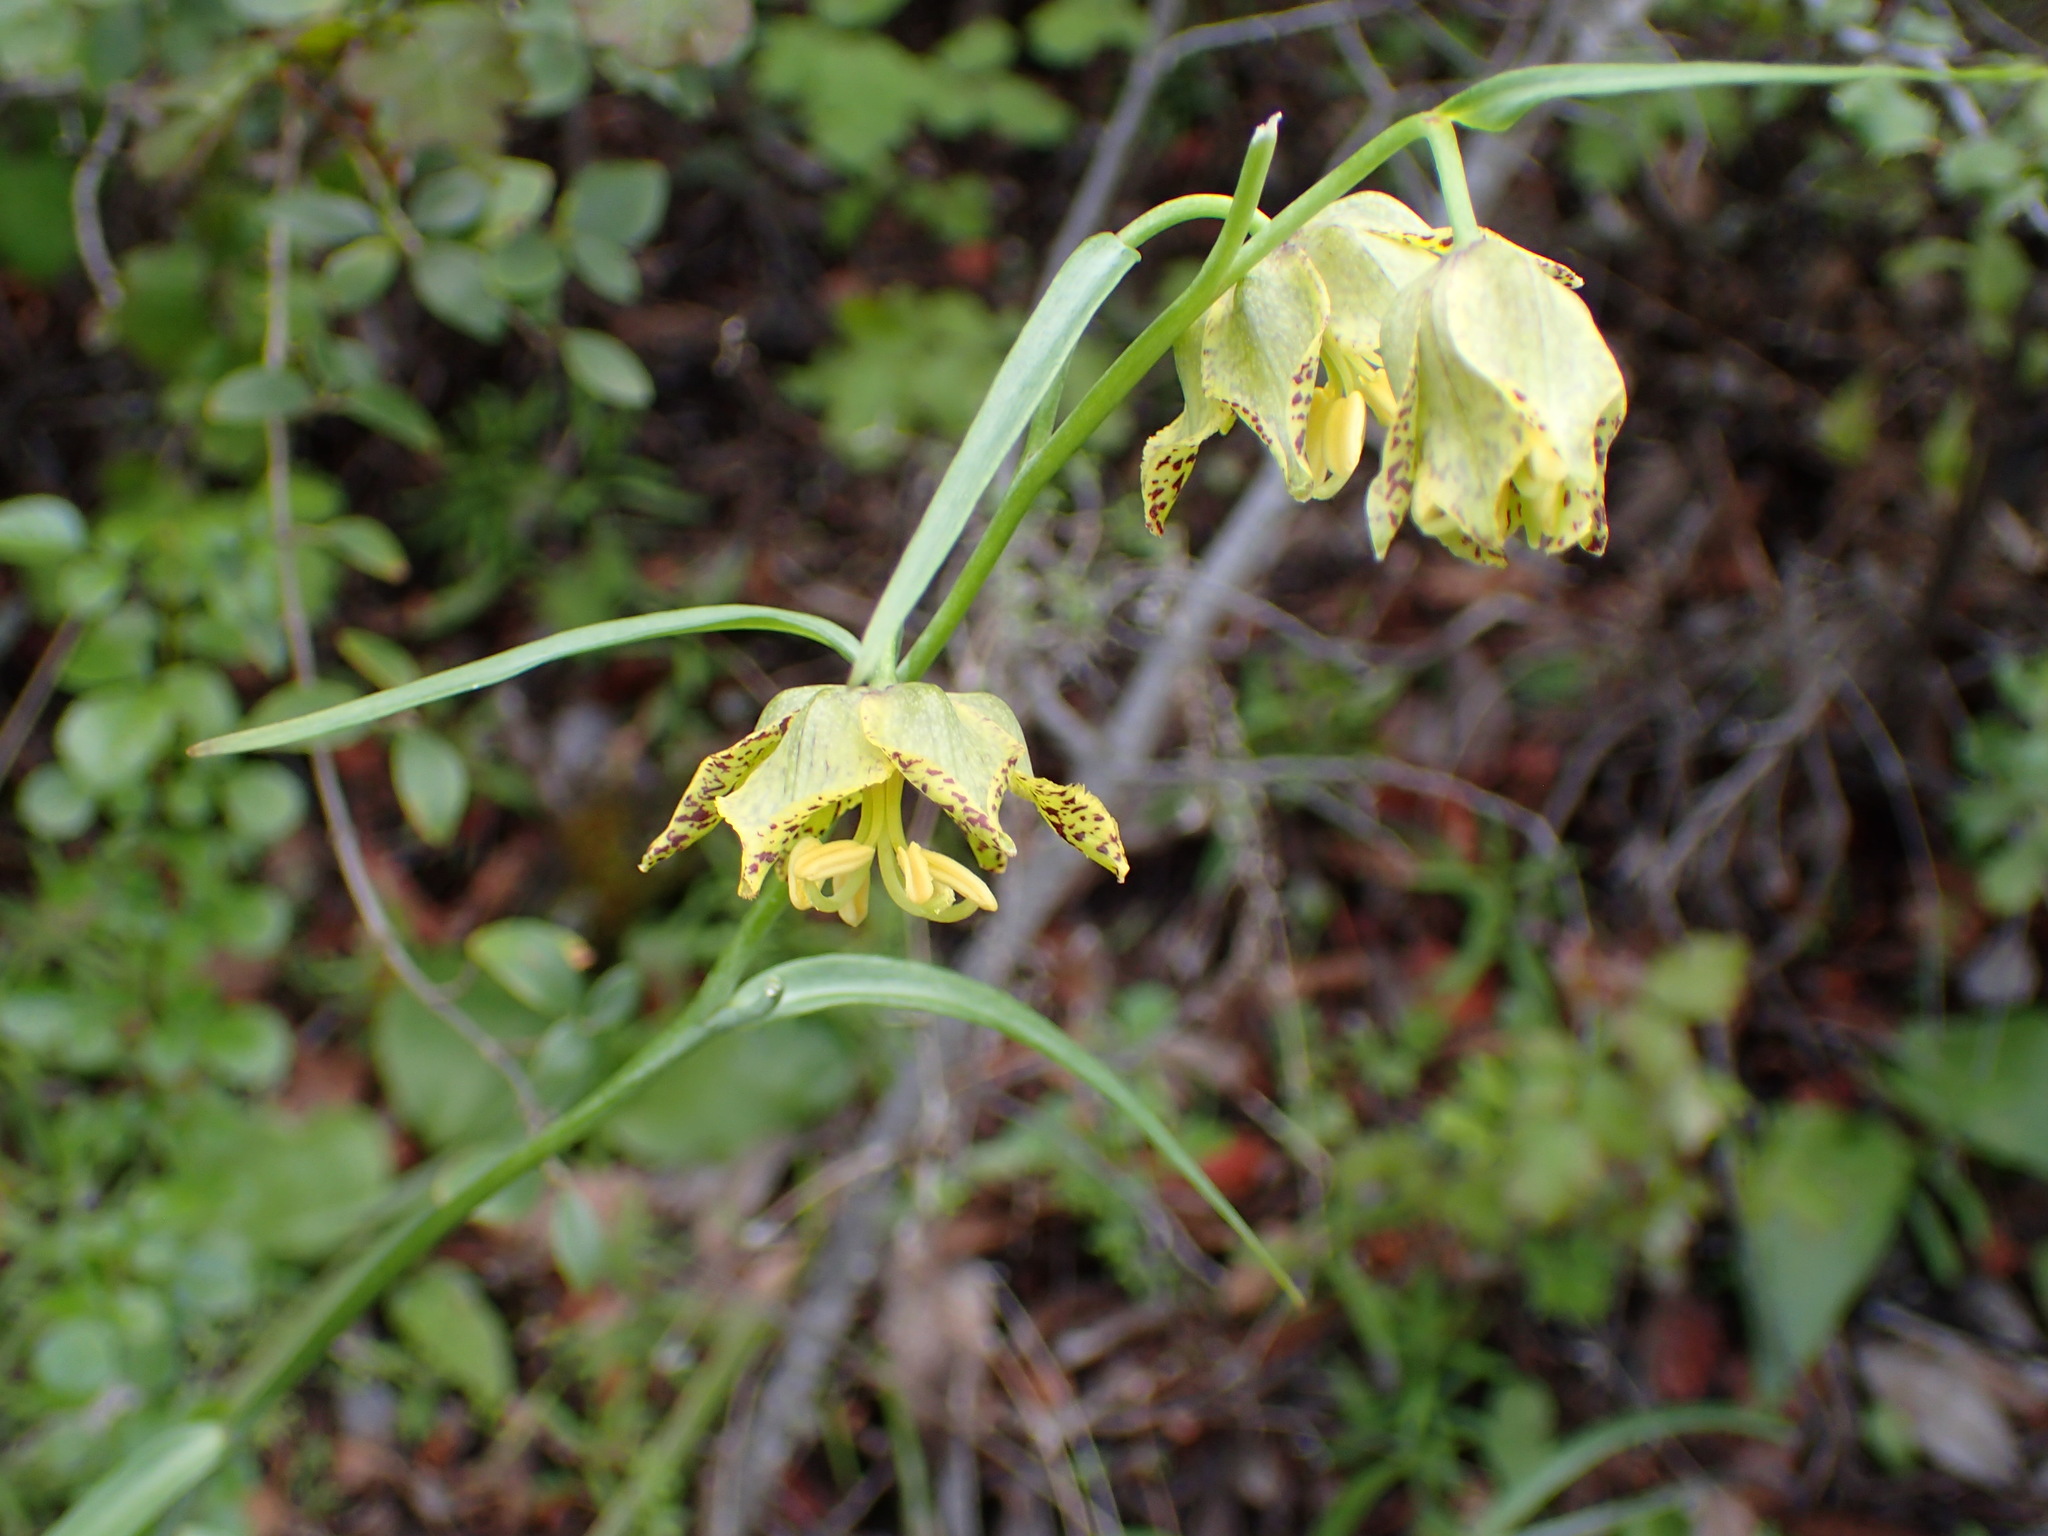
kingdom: Plantae
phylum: Tracheophyta
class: Liliopsida
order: Liliales
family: Liliaceae
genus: Fritillaria
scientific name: Fritillaria ojaiensis
